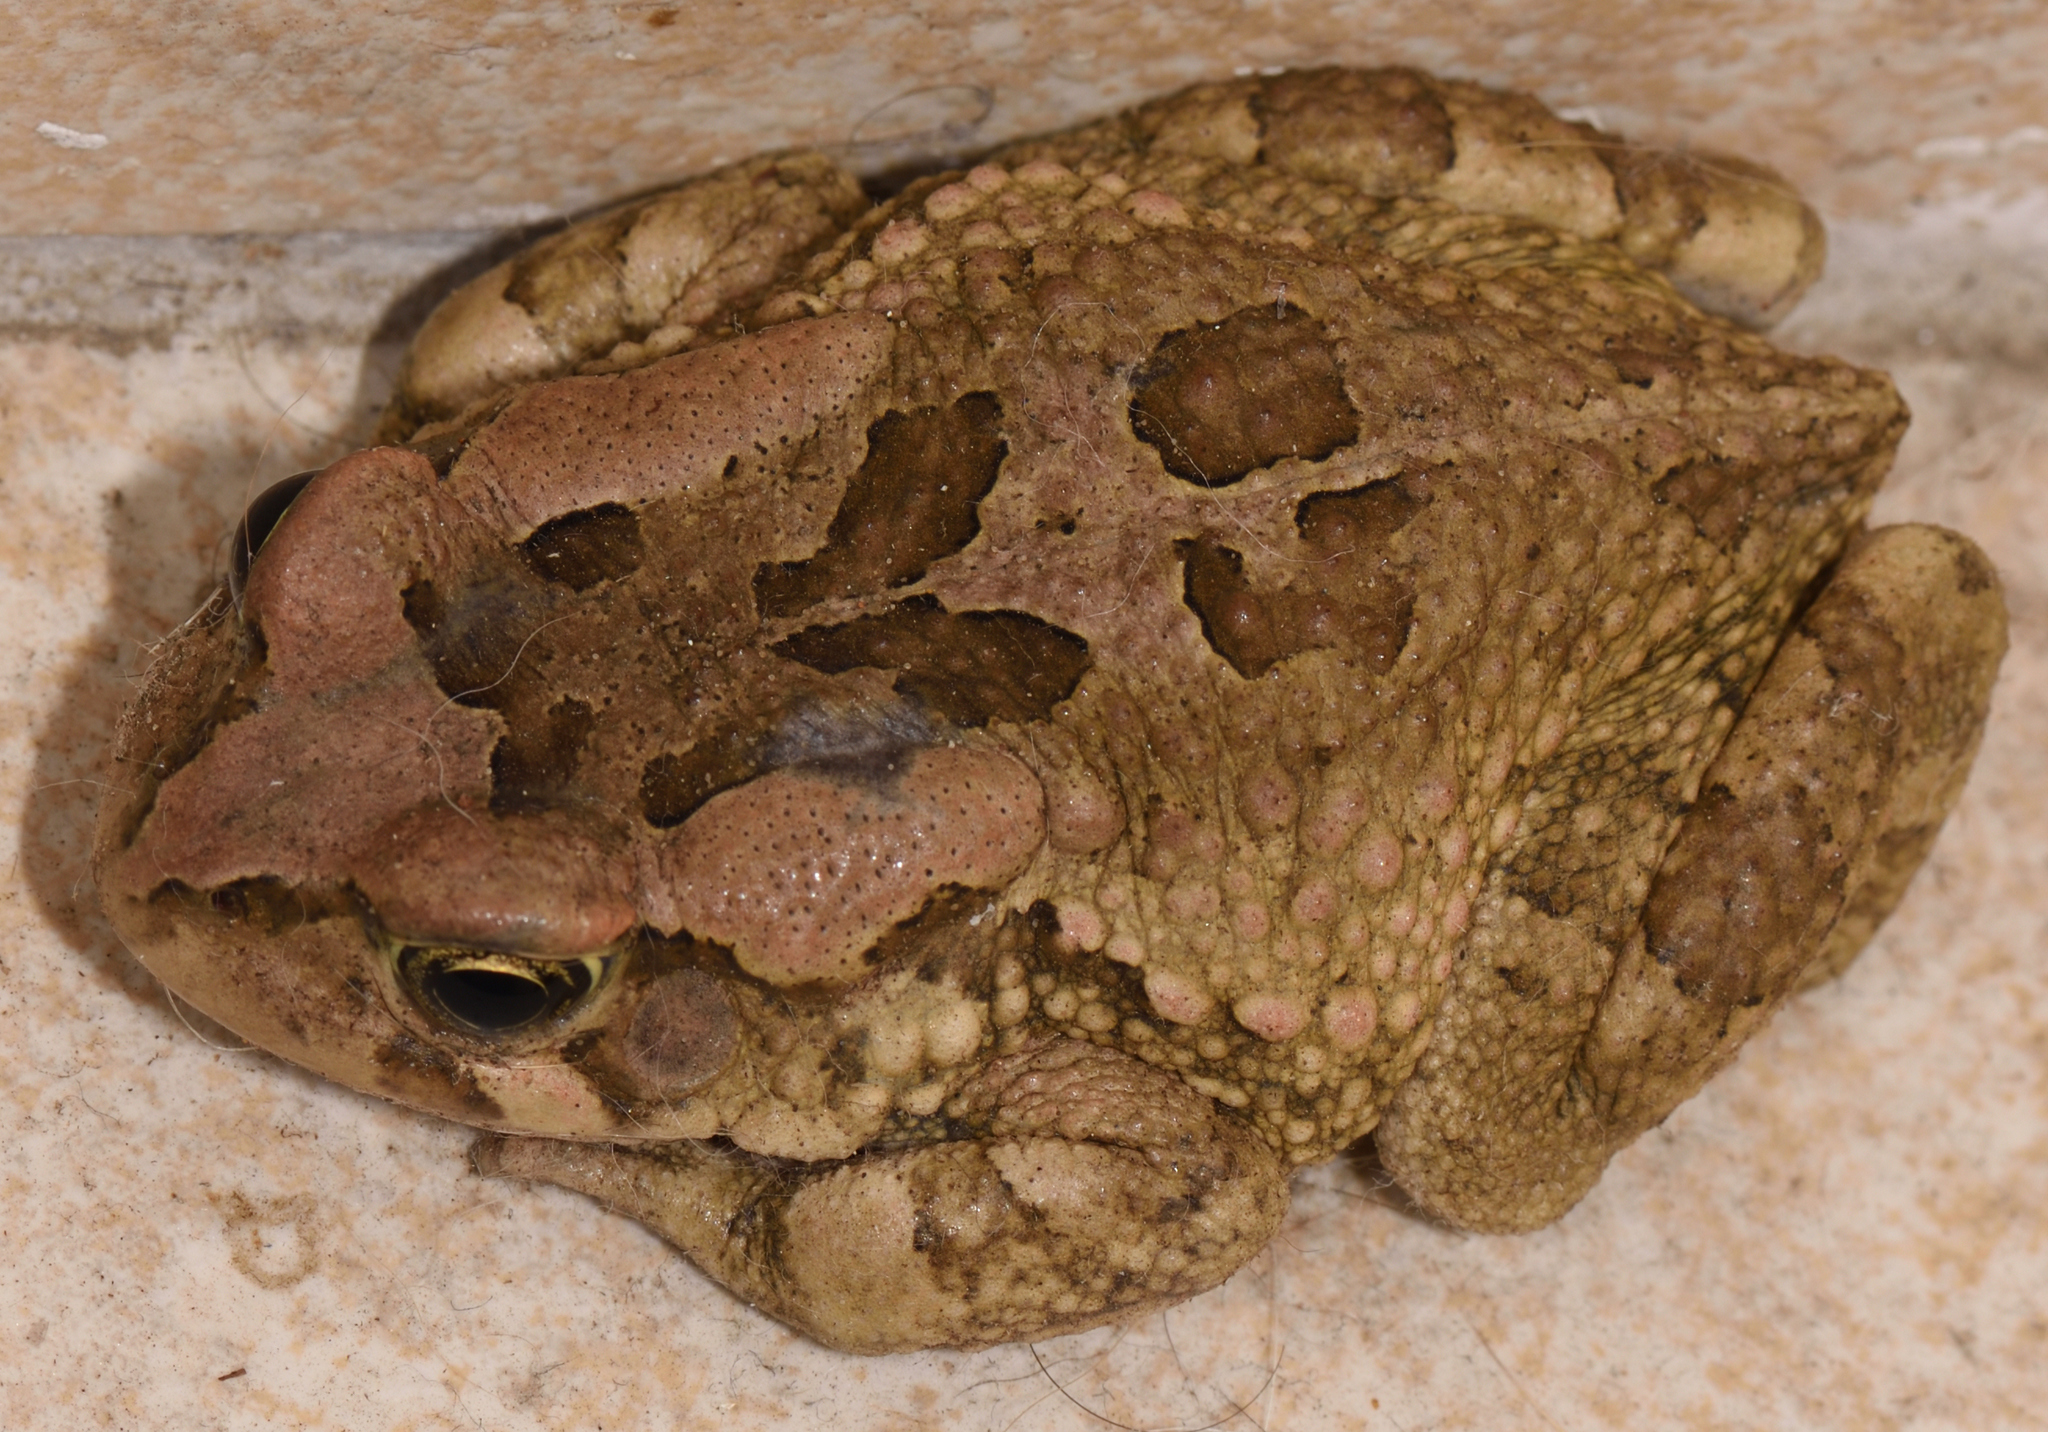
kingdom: Animalia
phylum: Chordata
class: Amphibia
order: Anura
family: Bufonidae
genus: Sclerophrys
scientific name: Sclerophrys capensis
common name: Ranger’s toad
